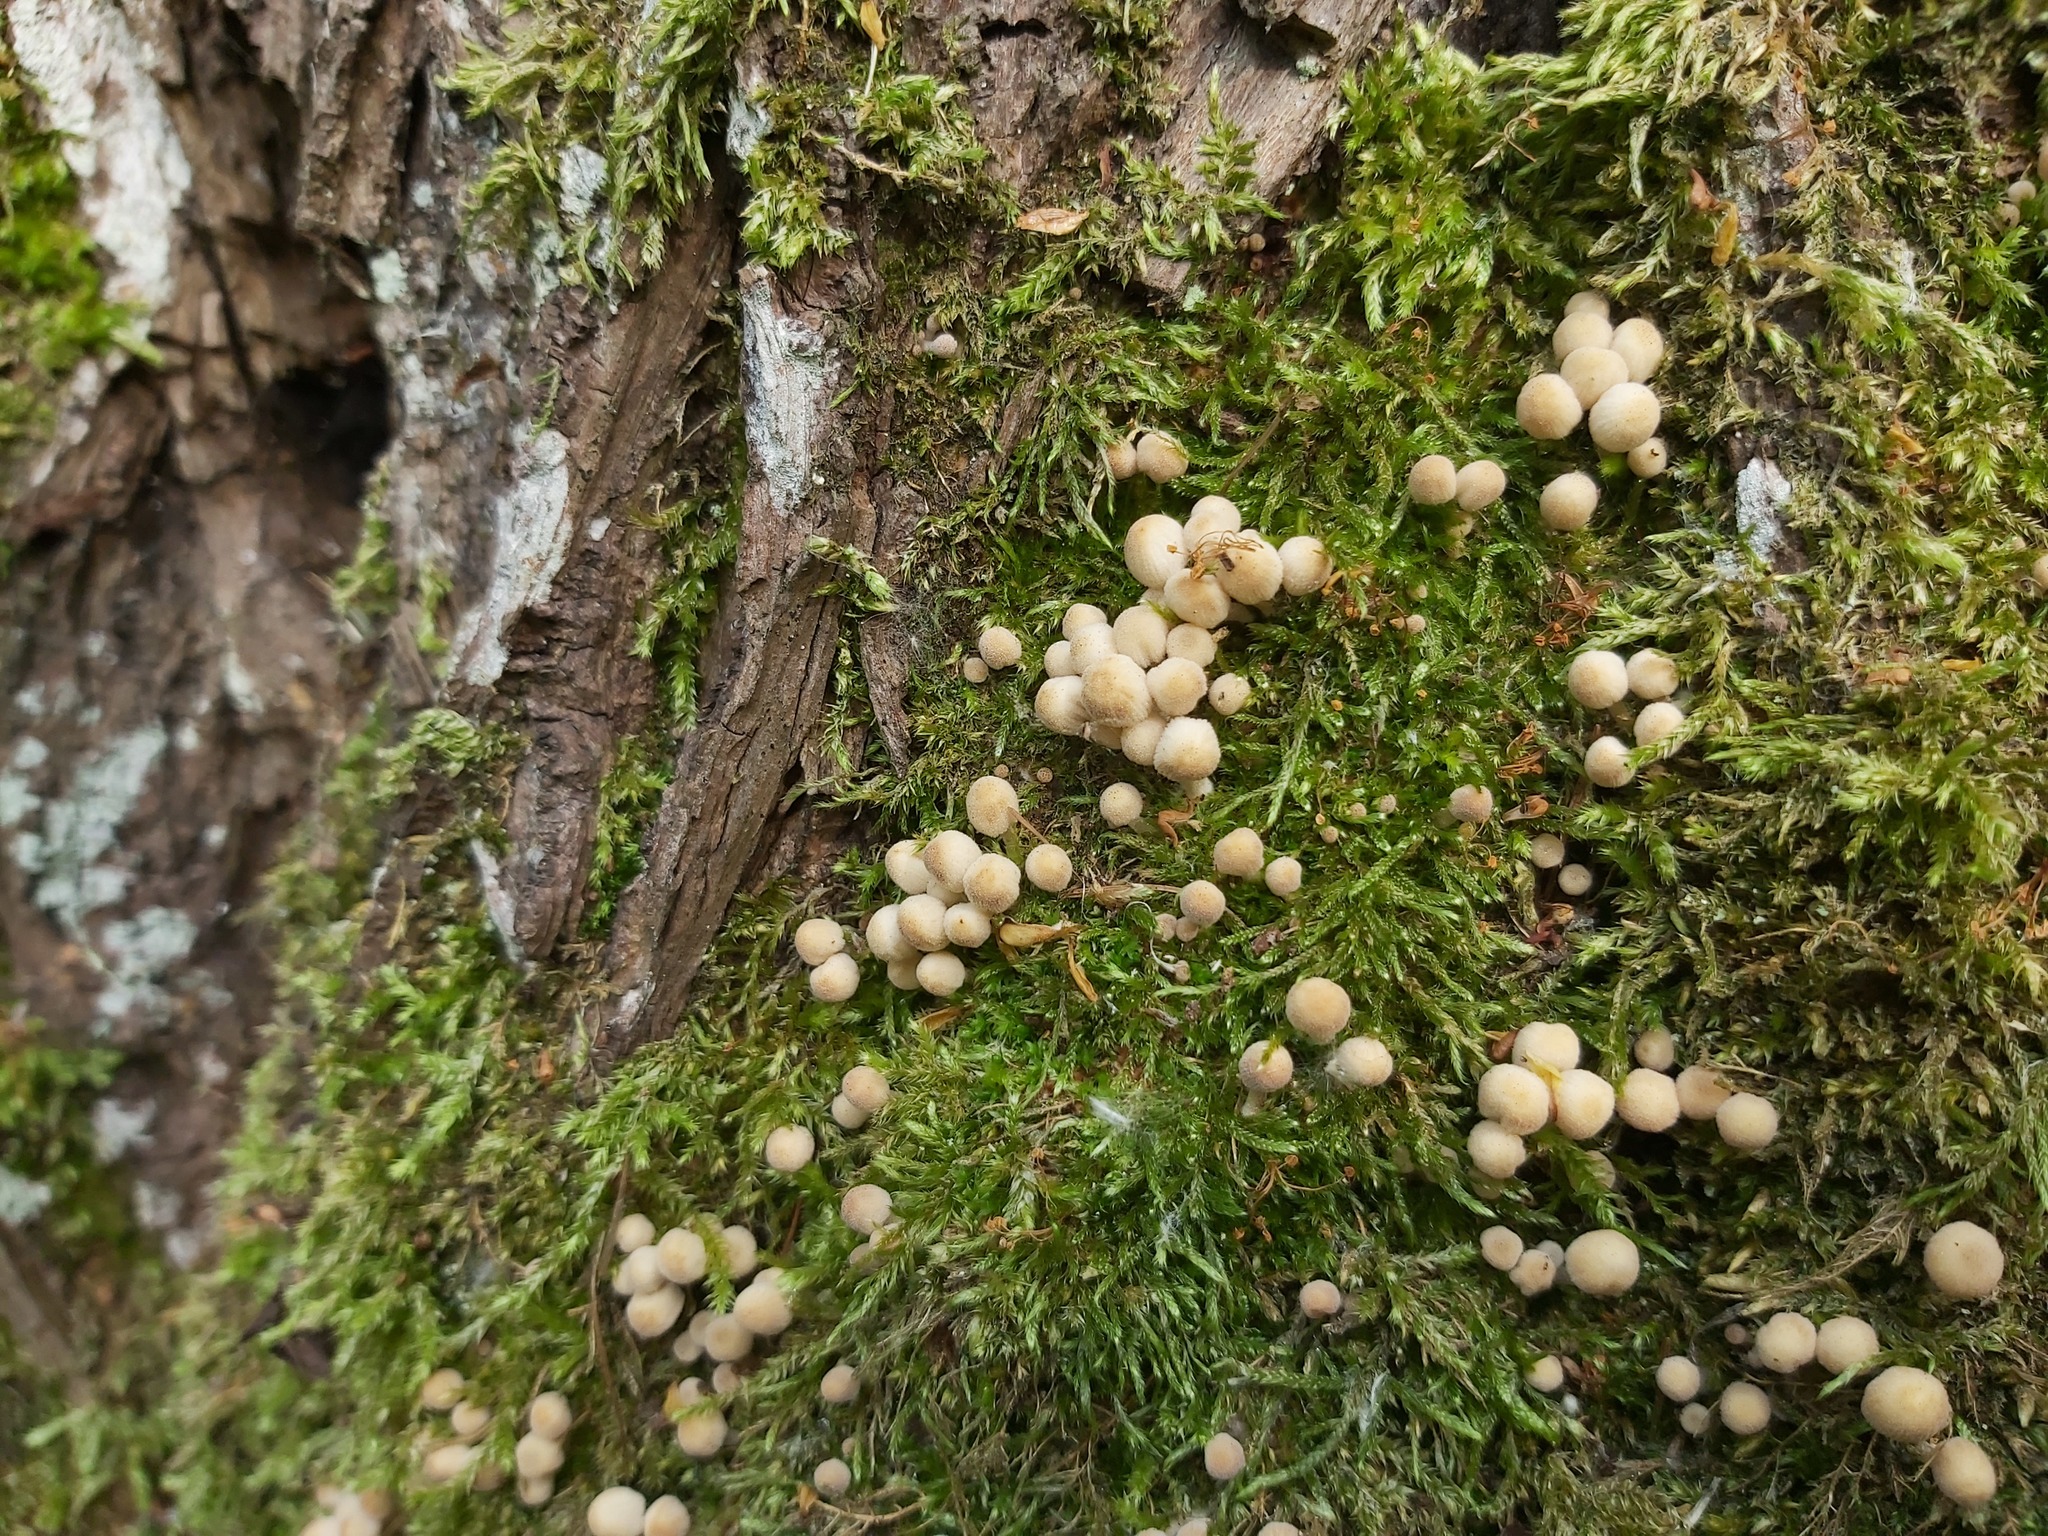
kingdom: Fungi
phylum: Basidiomycota
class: Agaricomycetes
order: Agaricales
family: Psathyrellaceae
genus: Coprinellus
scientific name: Coprinellus disseminatus
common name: Fairies' bonnets
